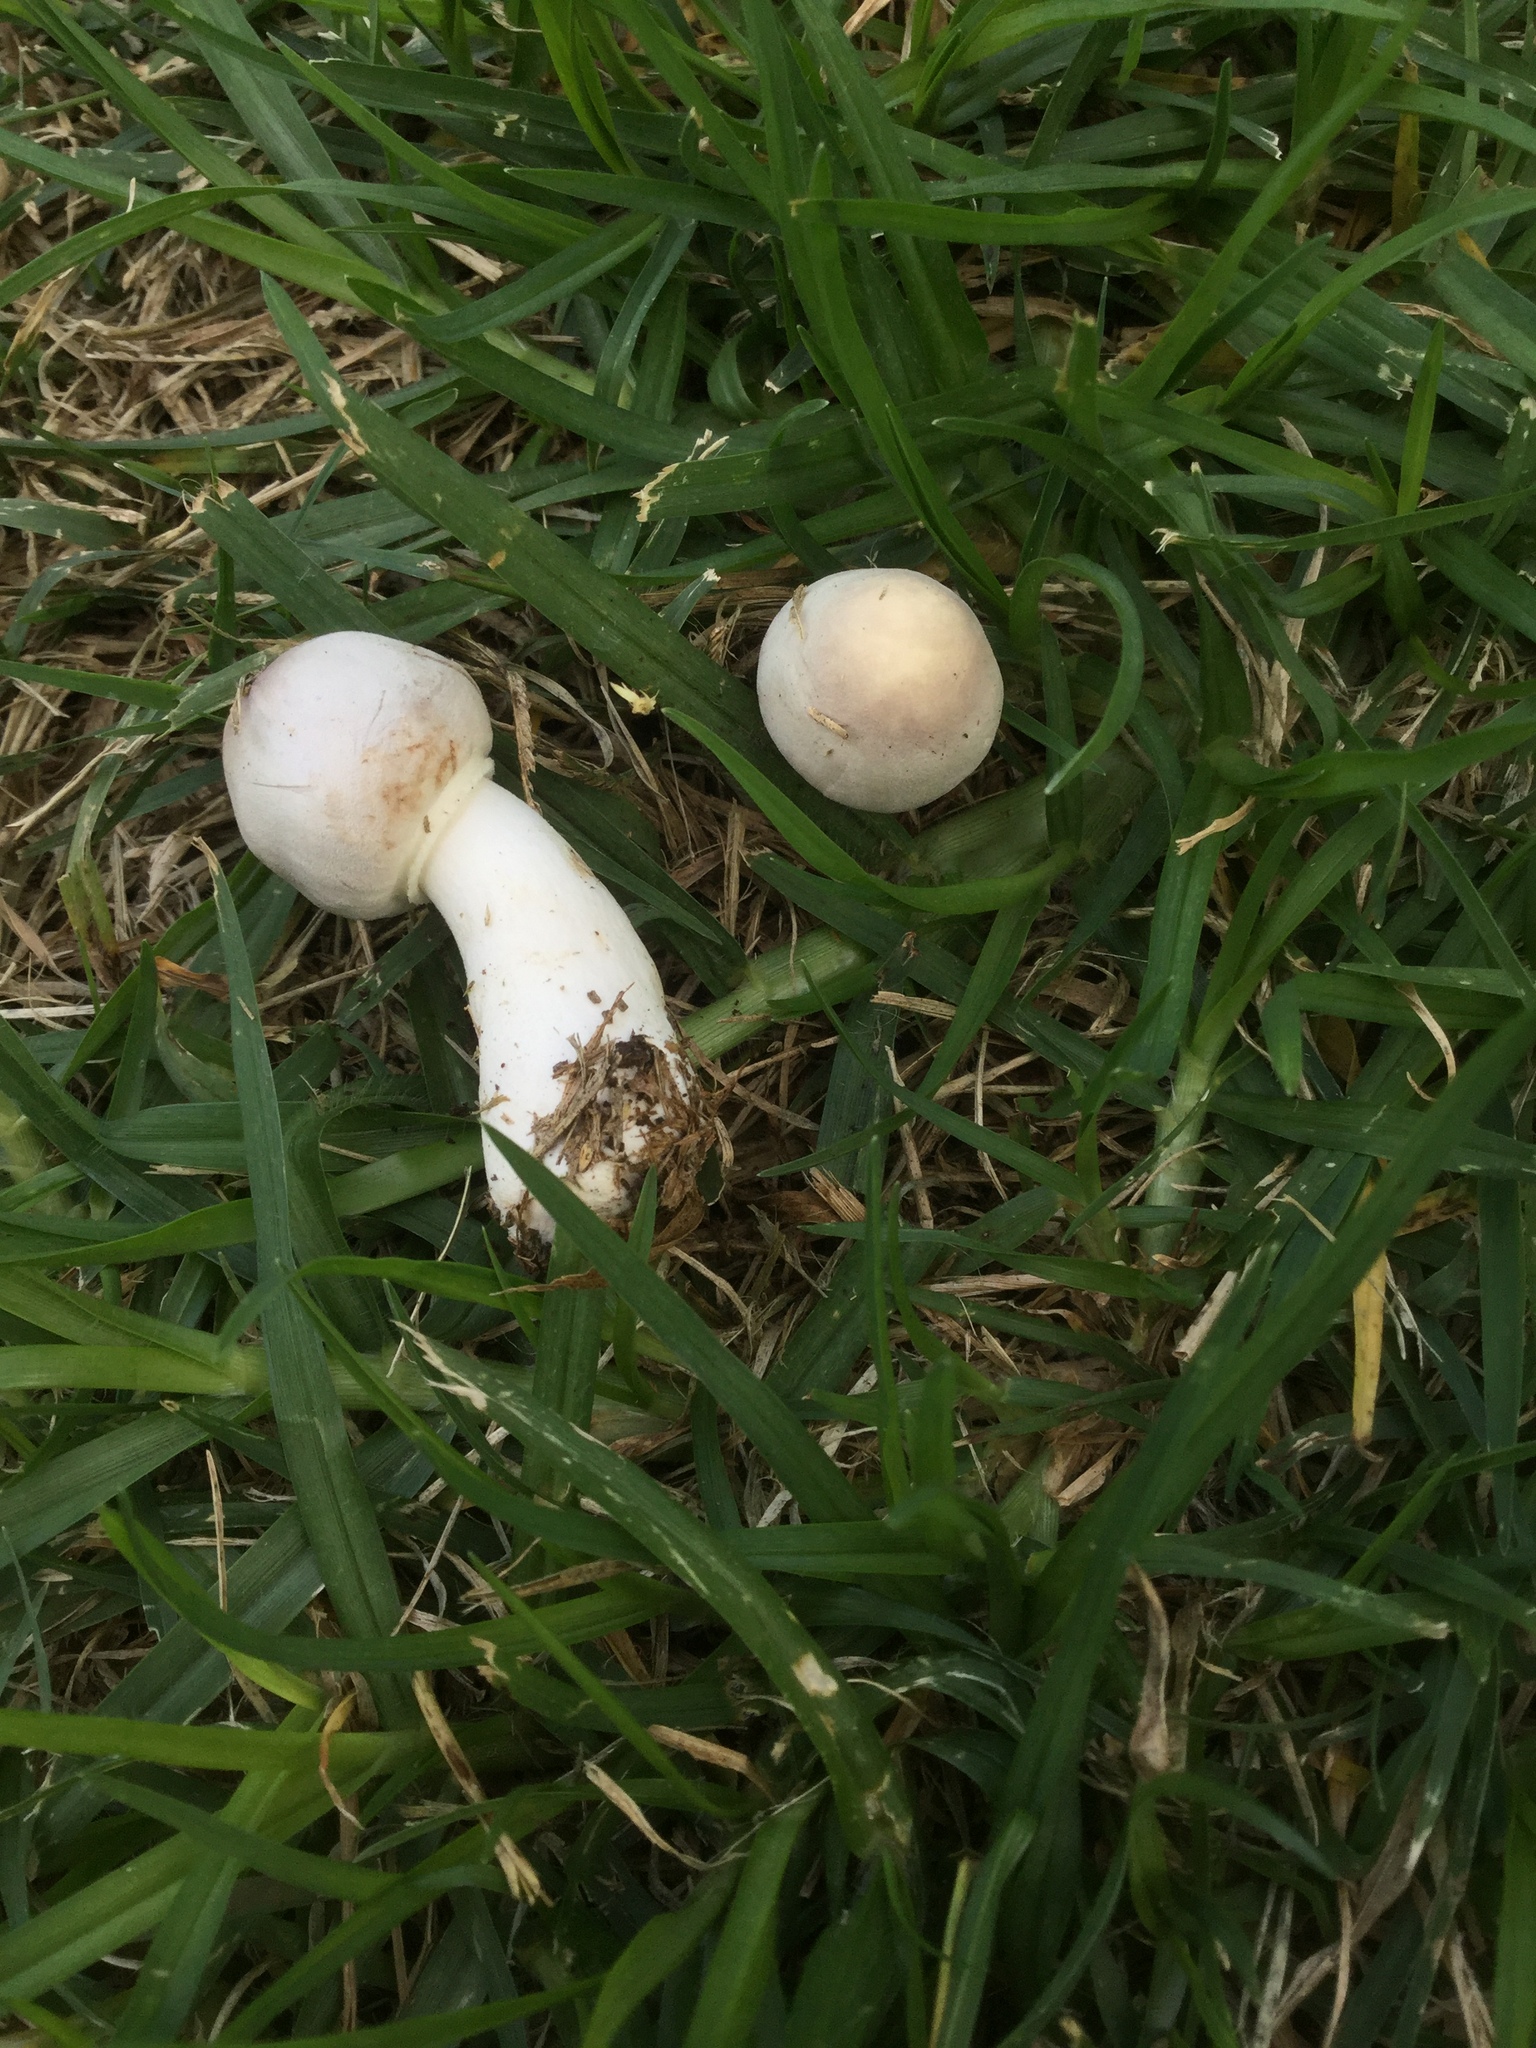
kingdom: Fungi
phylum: Basidiomycota
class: Agaricomycetes
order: Agaricales
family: Agaricaceae
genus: Leucoagaricus
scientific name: Leucoagaricus leucothites
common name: White dapperling
